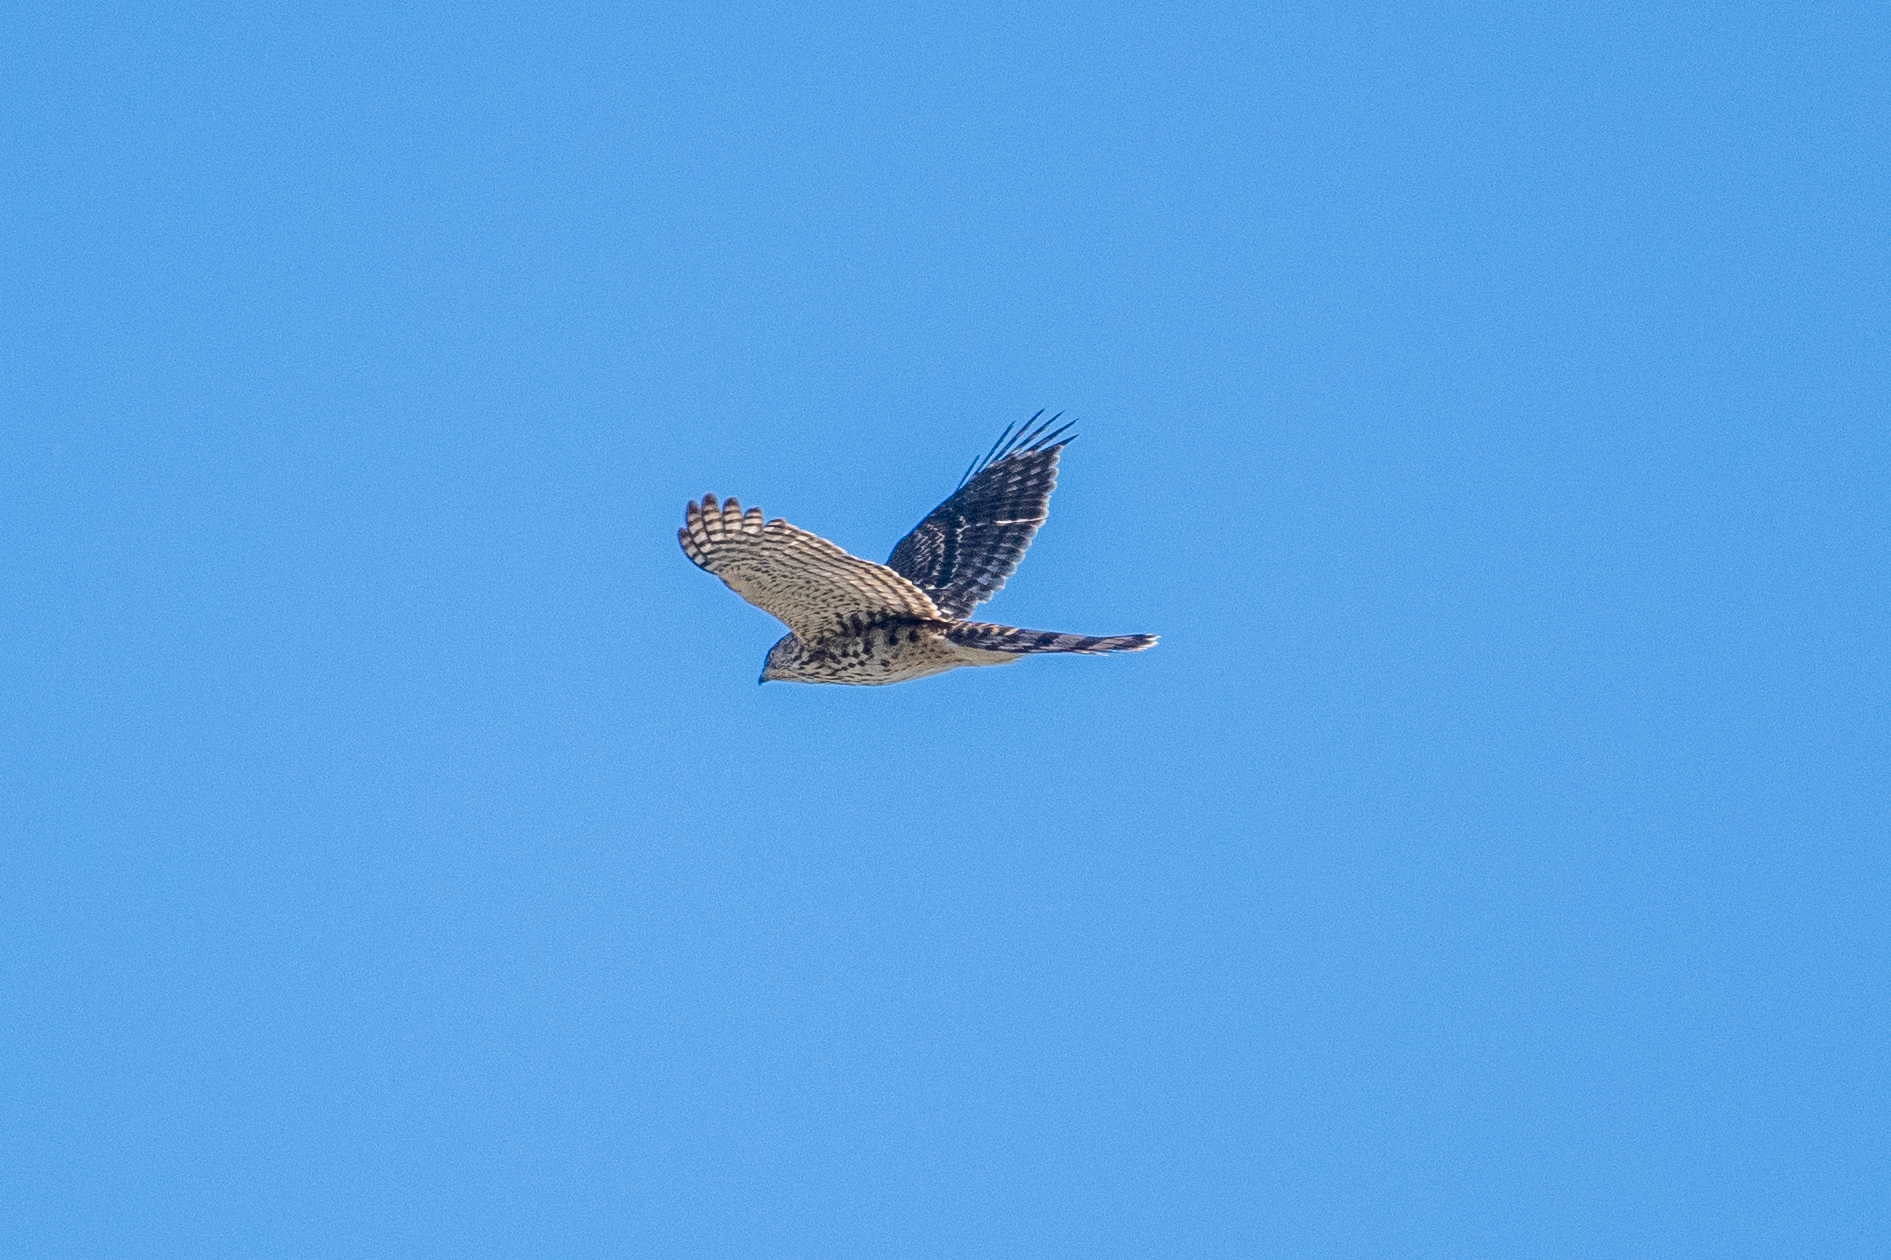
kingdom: Animalia
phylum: Chordata
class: Aves
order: Accipitriformes
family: Accipitridae
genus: Accipiter
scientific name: Accipiter cooperii
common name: Cooper's hawk
